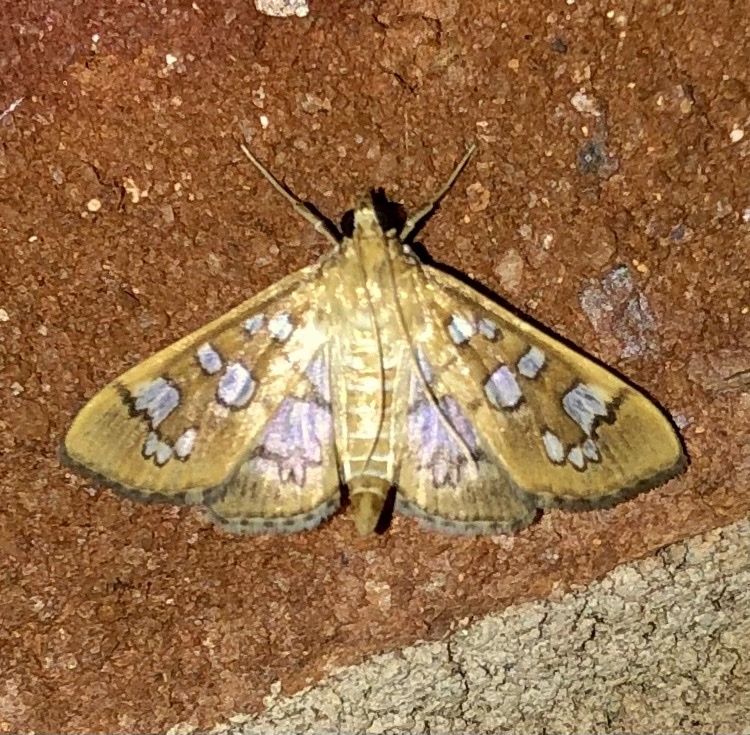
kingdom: Animalia
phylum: Arthropoda
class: Insecta
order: Lepidoptera
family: Crambidae
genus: Samea
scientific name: Samea baccatalis
